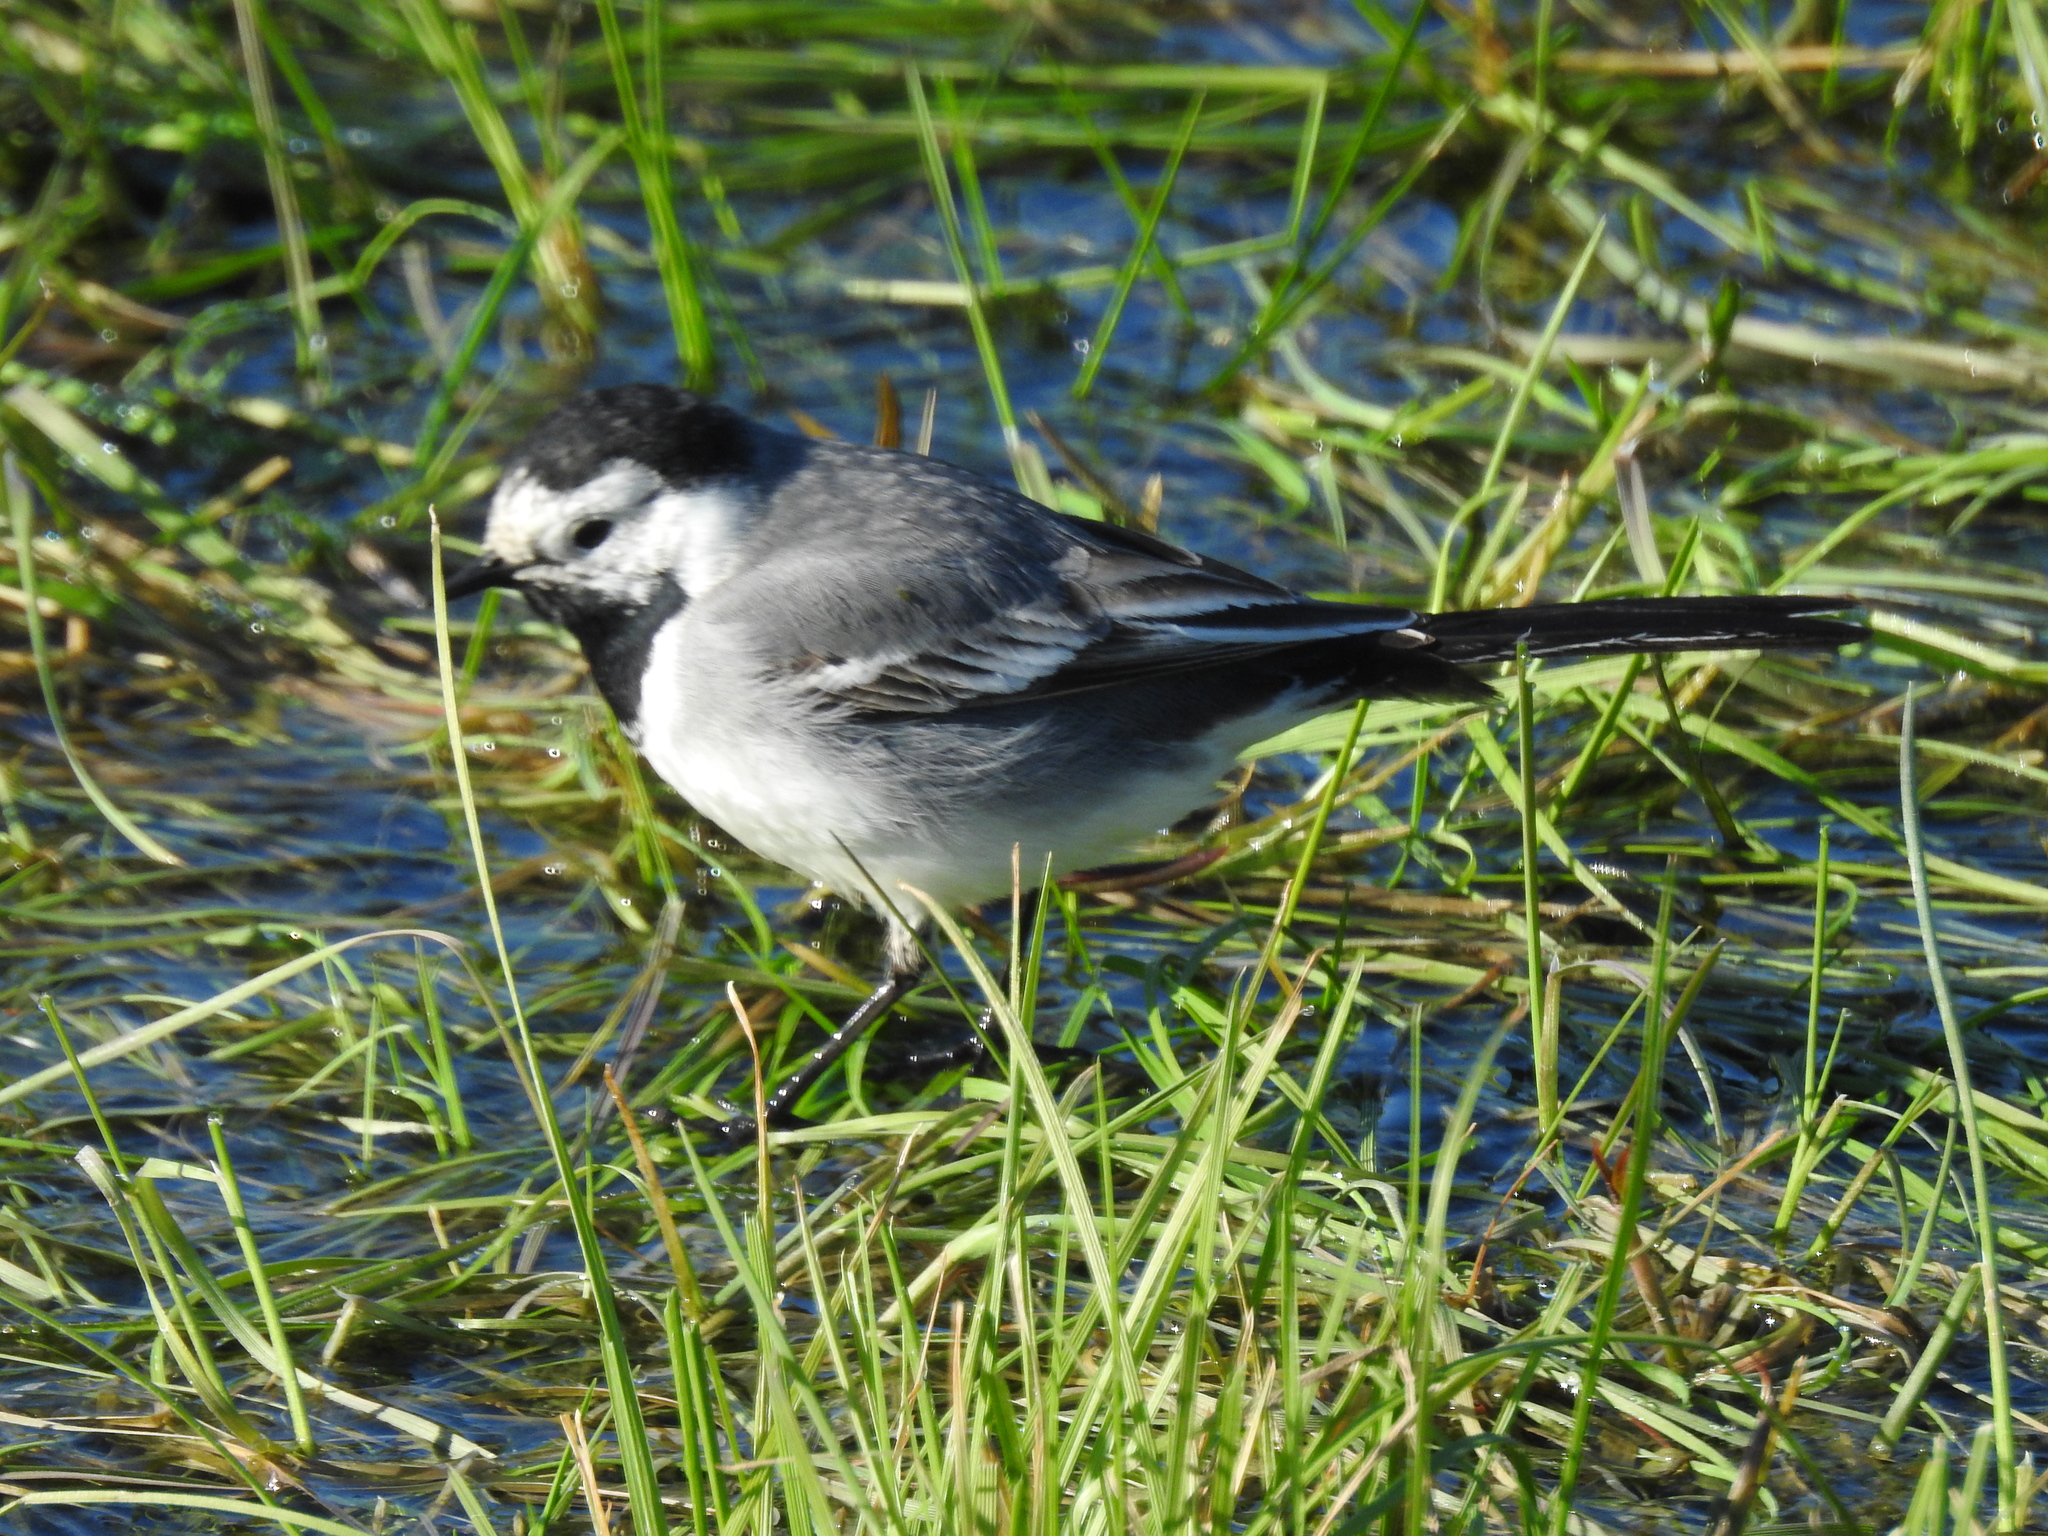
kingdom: Animalia
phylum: Chordata
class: Aves
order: Passeriformes
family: Motacillidae
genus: Motacilla
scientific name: Motacilla alba
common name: White wagtail
